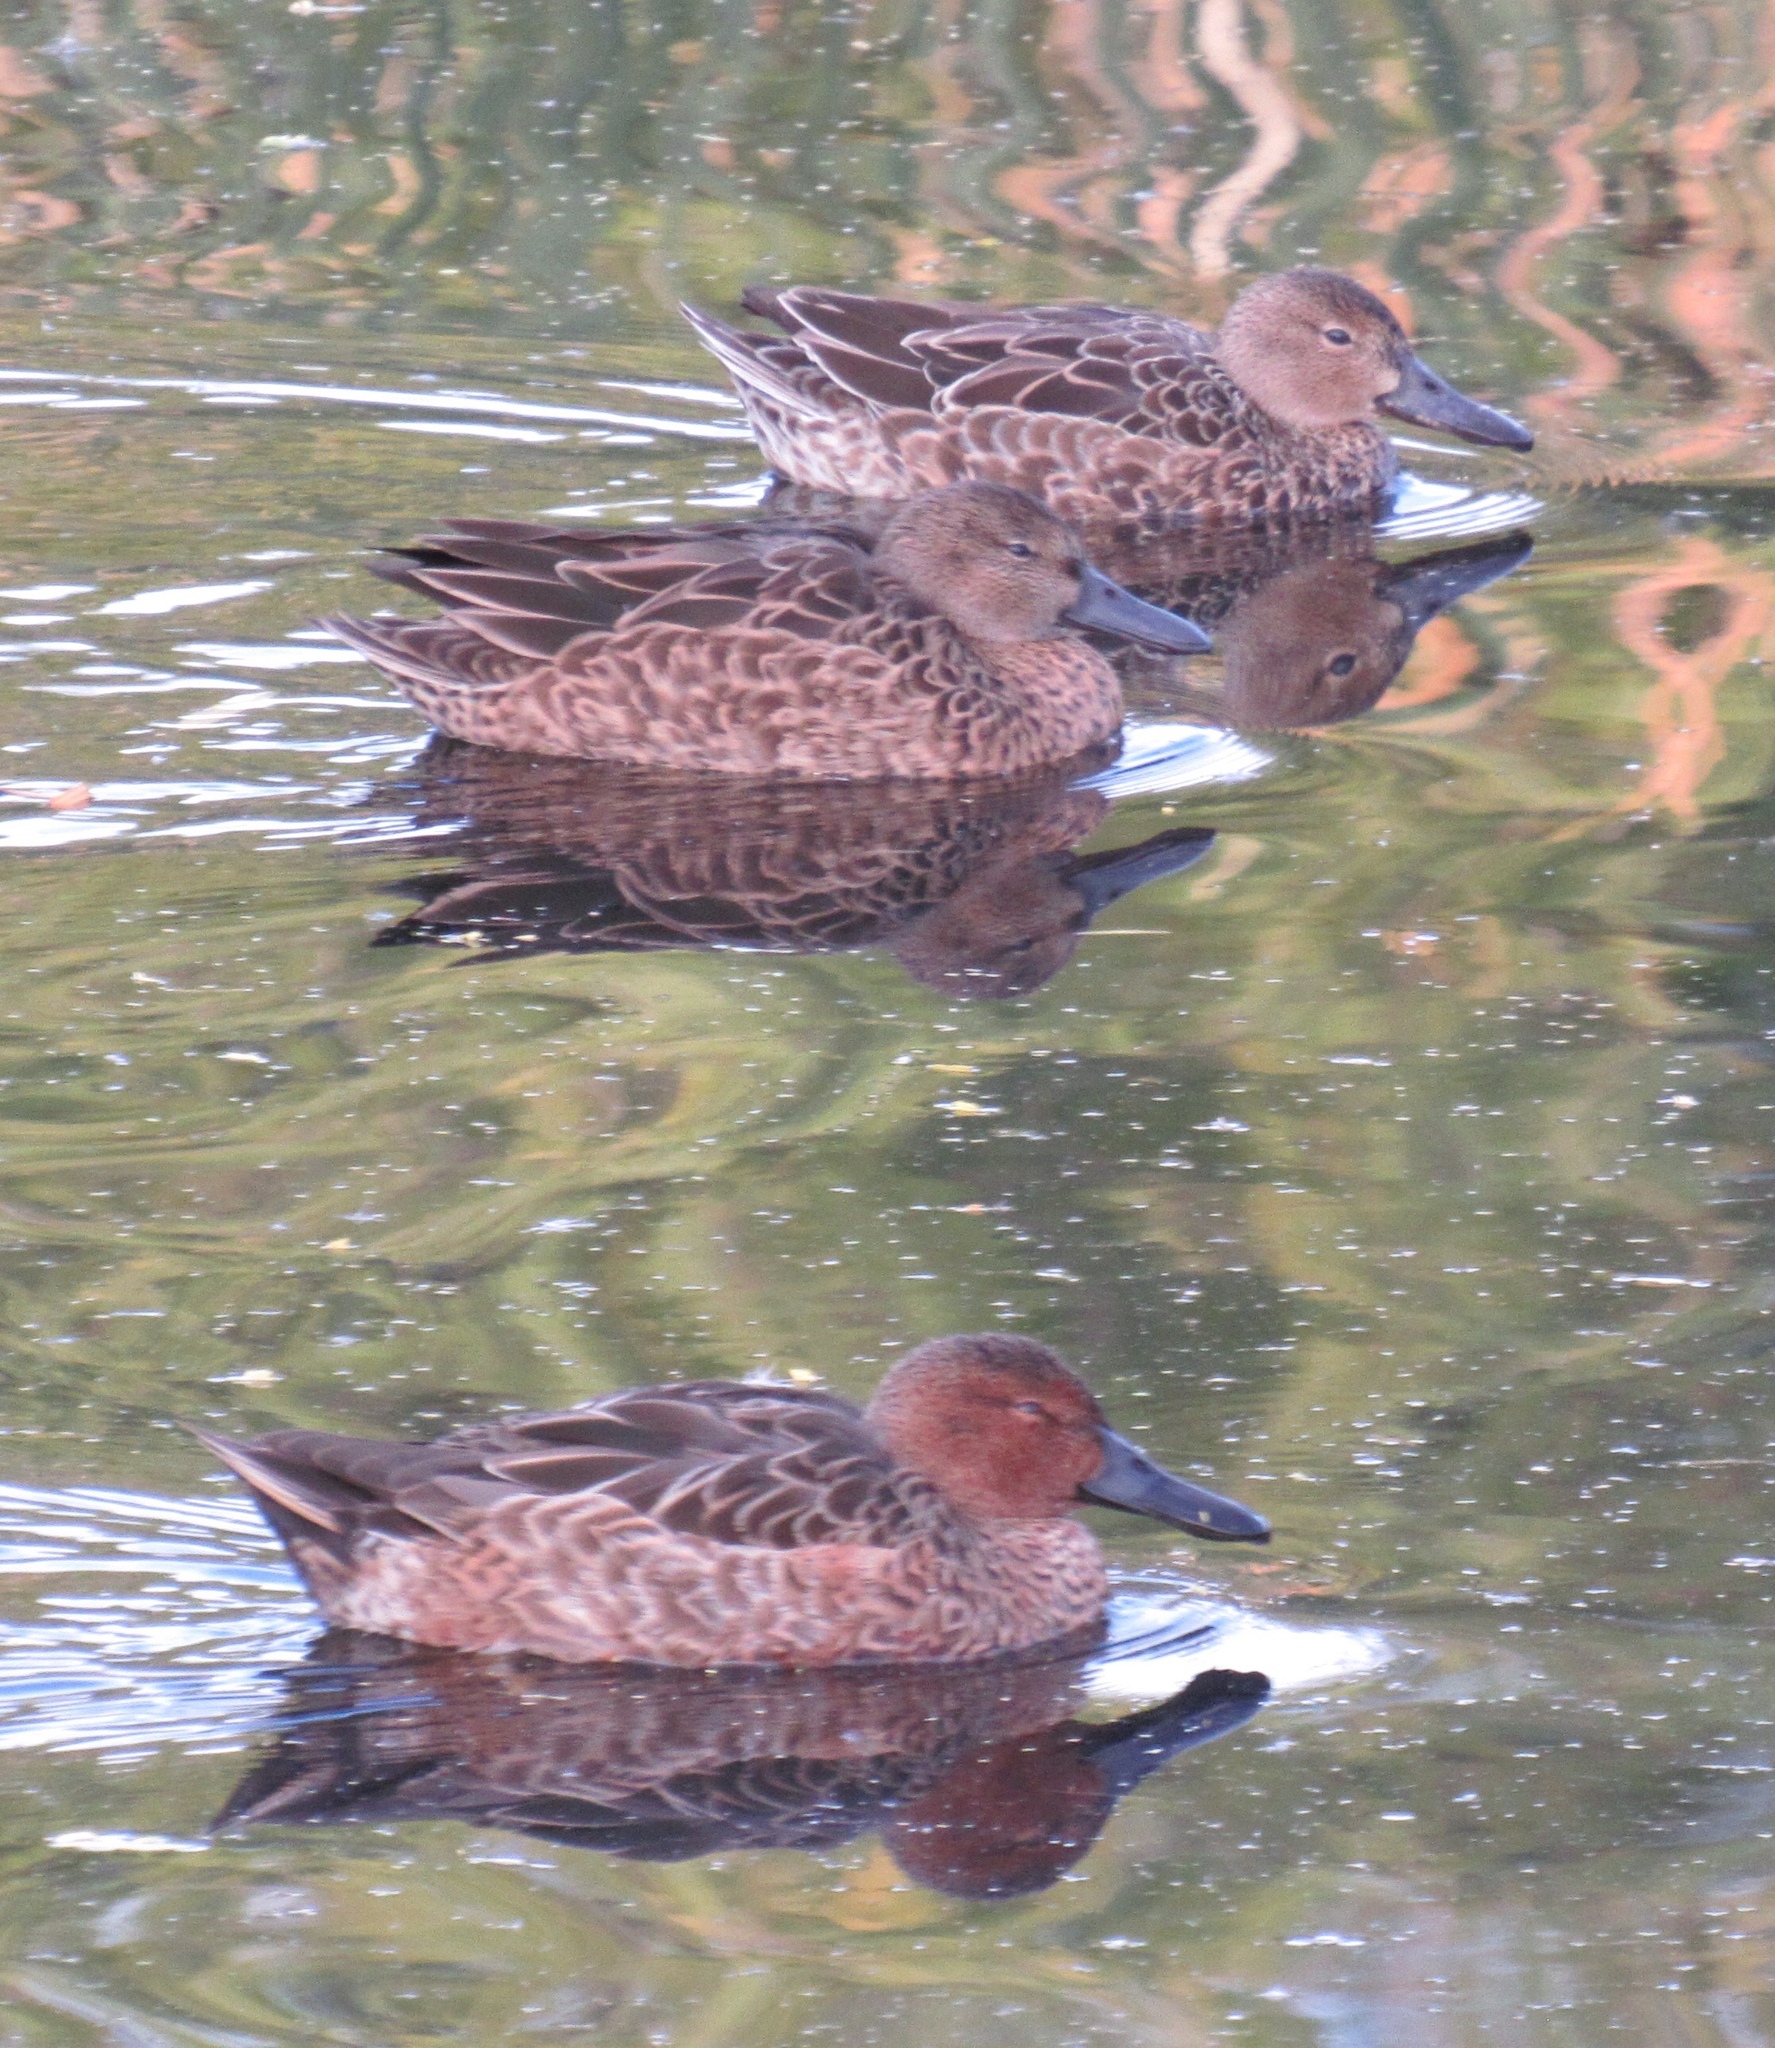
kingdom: Animalia
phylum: Chordata
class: Aves
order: Anseriformes
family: Anatidae
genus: Spatula
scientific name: Spatula cyanoptera
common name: Cinnamon teal
